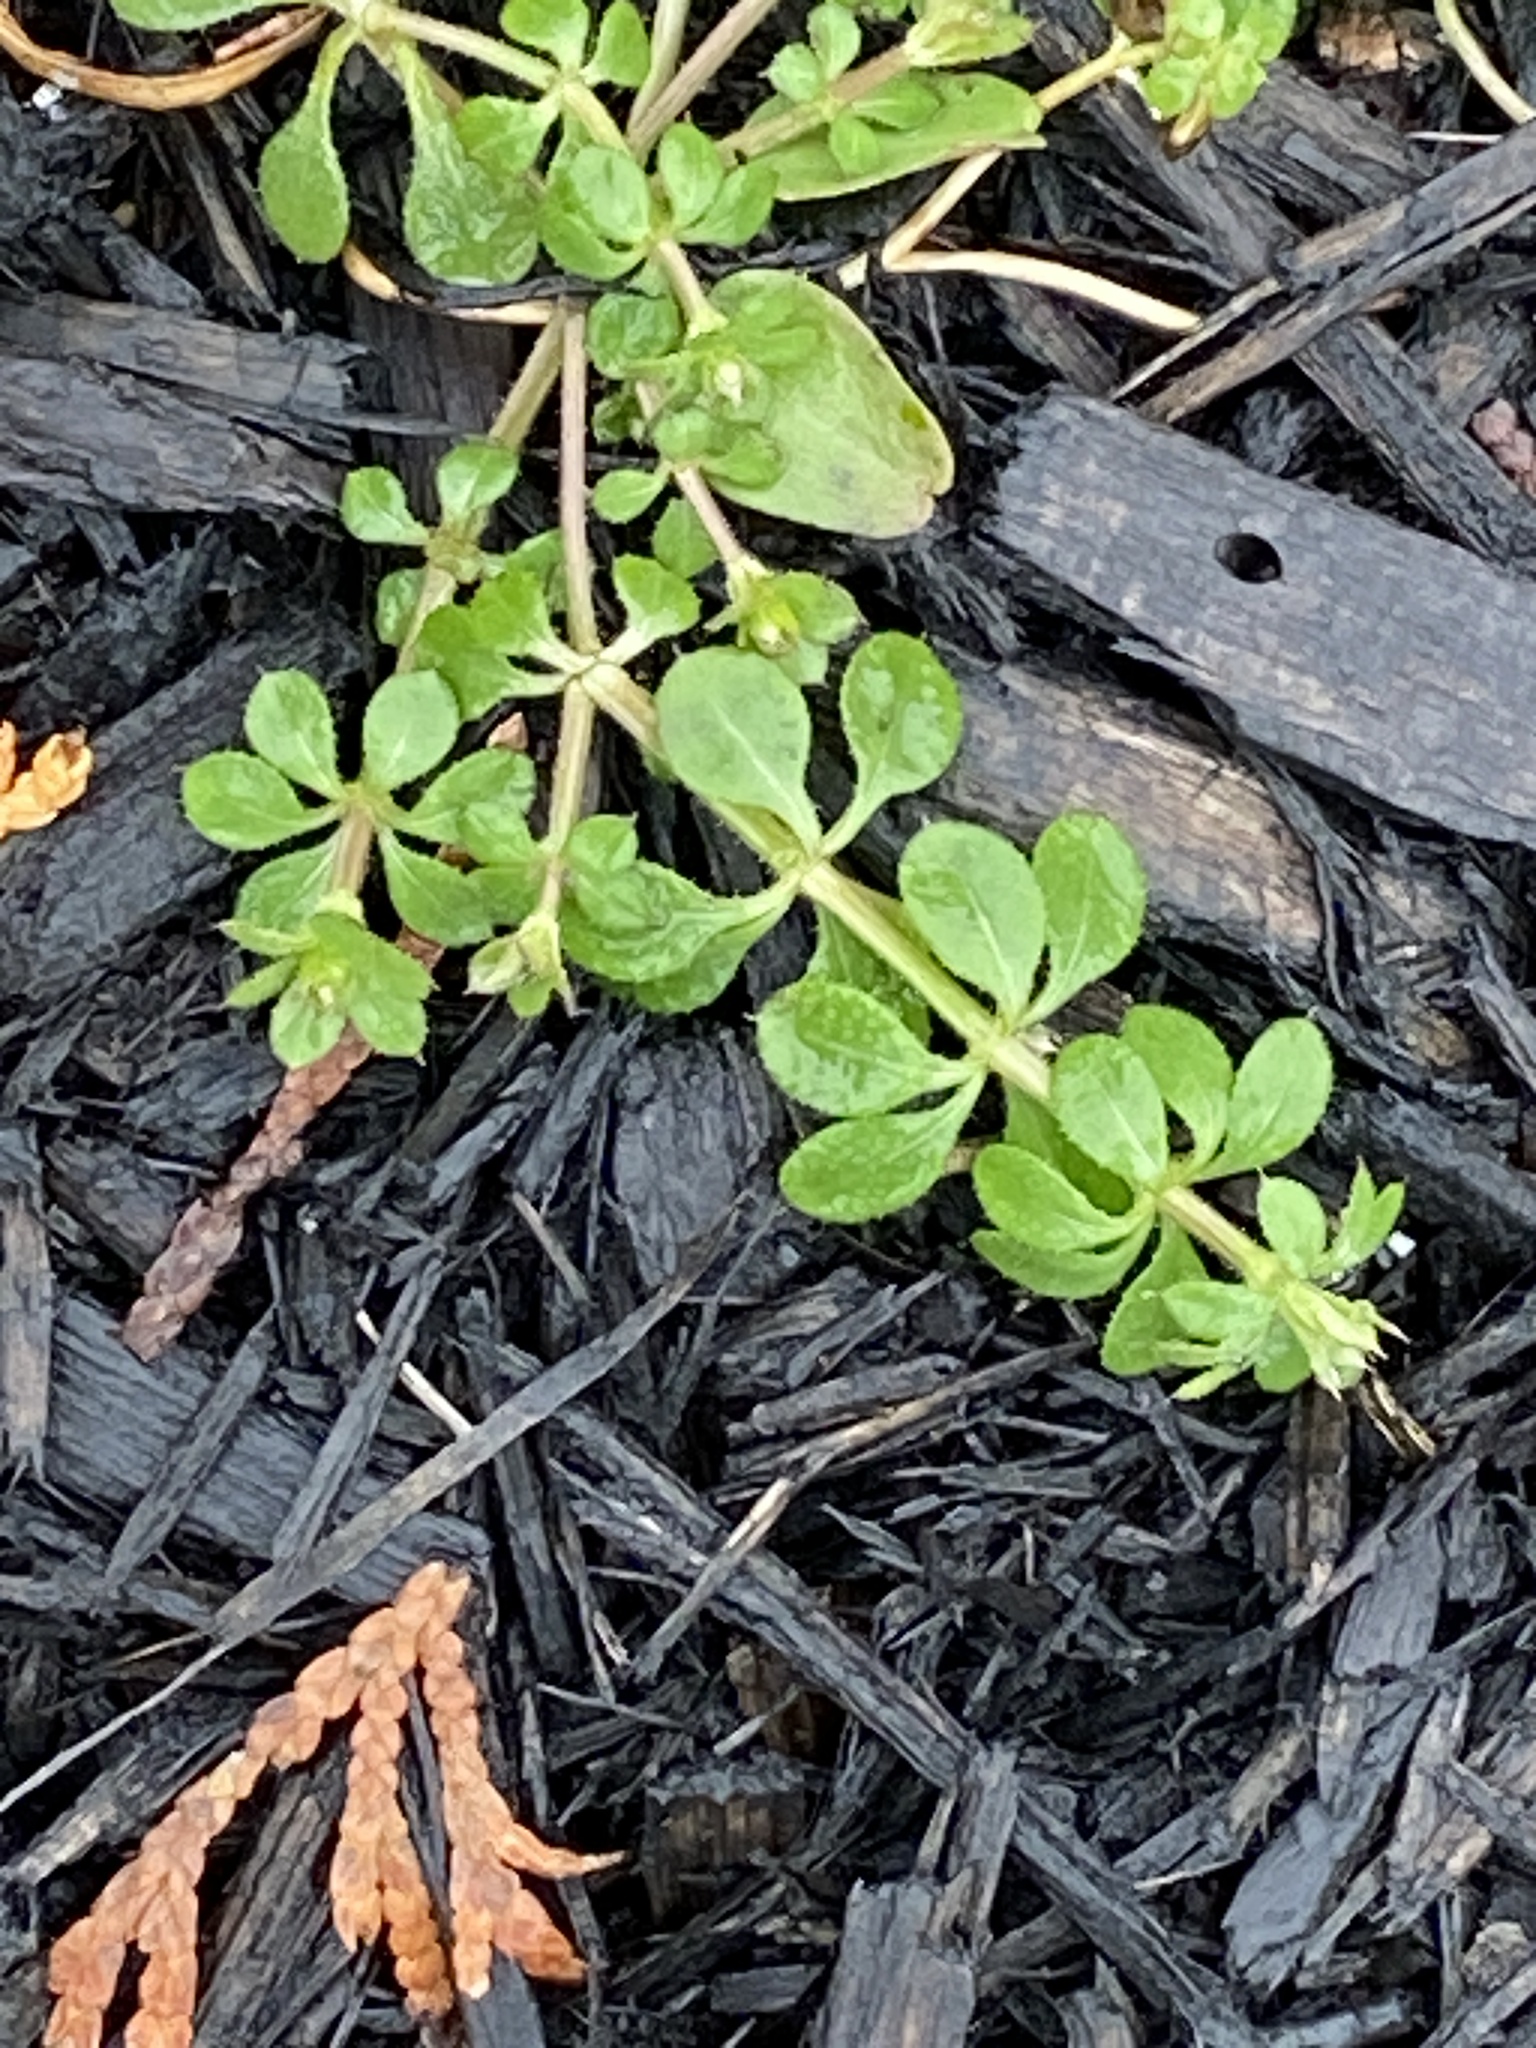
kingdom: Plantae
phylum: Tracheophyta
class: Magnoliopsida
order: Gentianales
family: Rubiaceae
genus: Galium
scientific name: Galium aparine
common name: Cleavers
